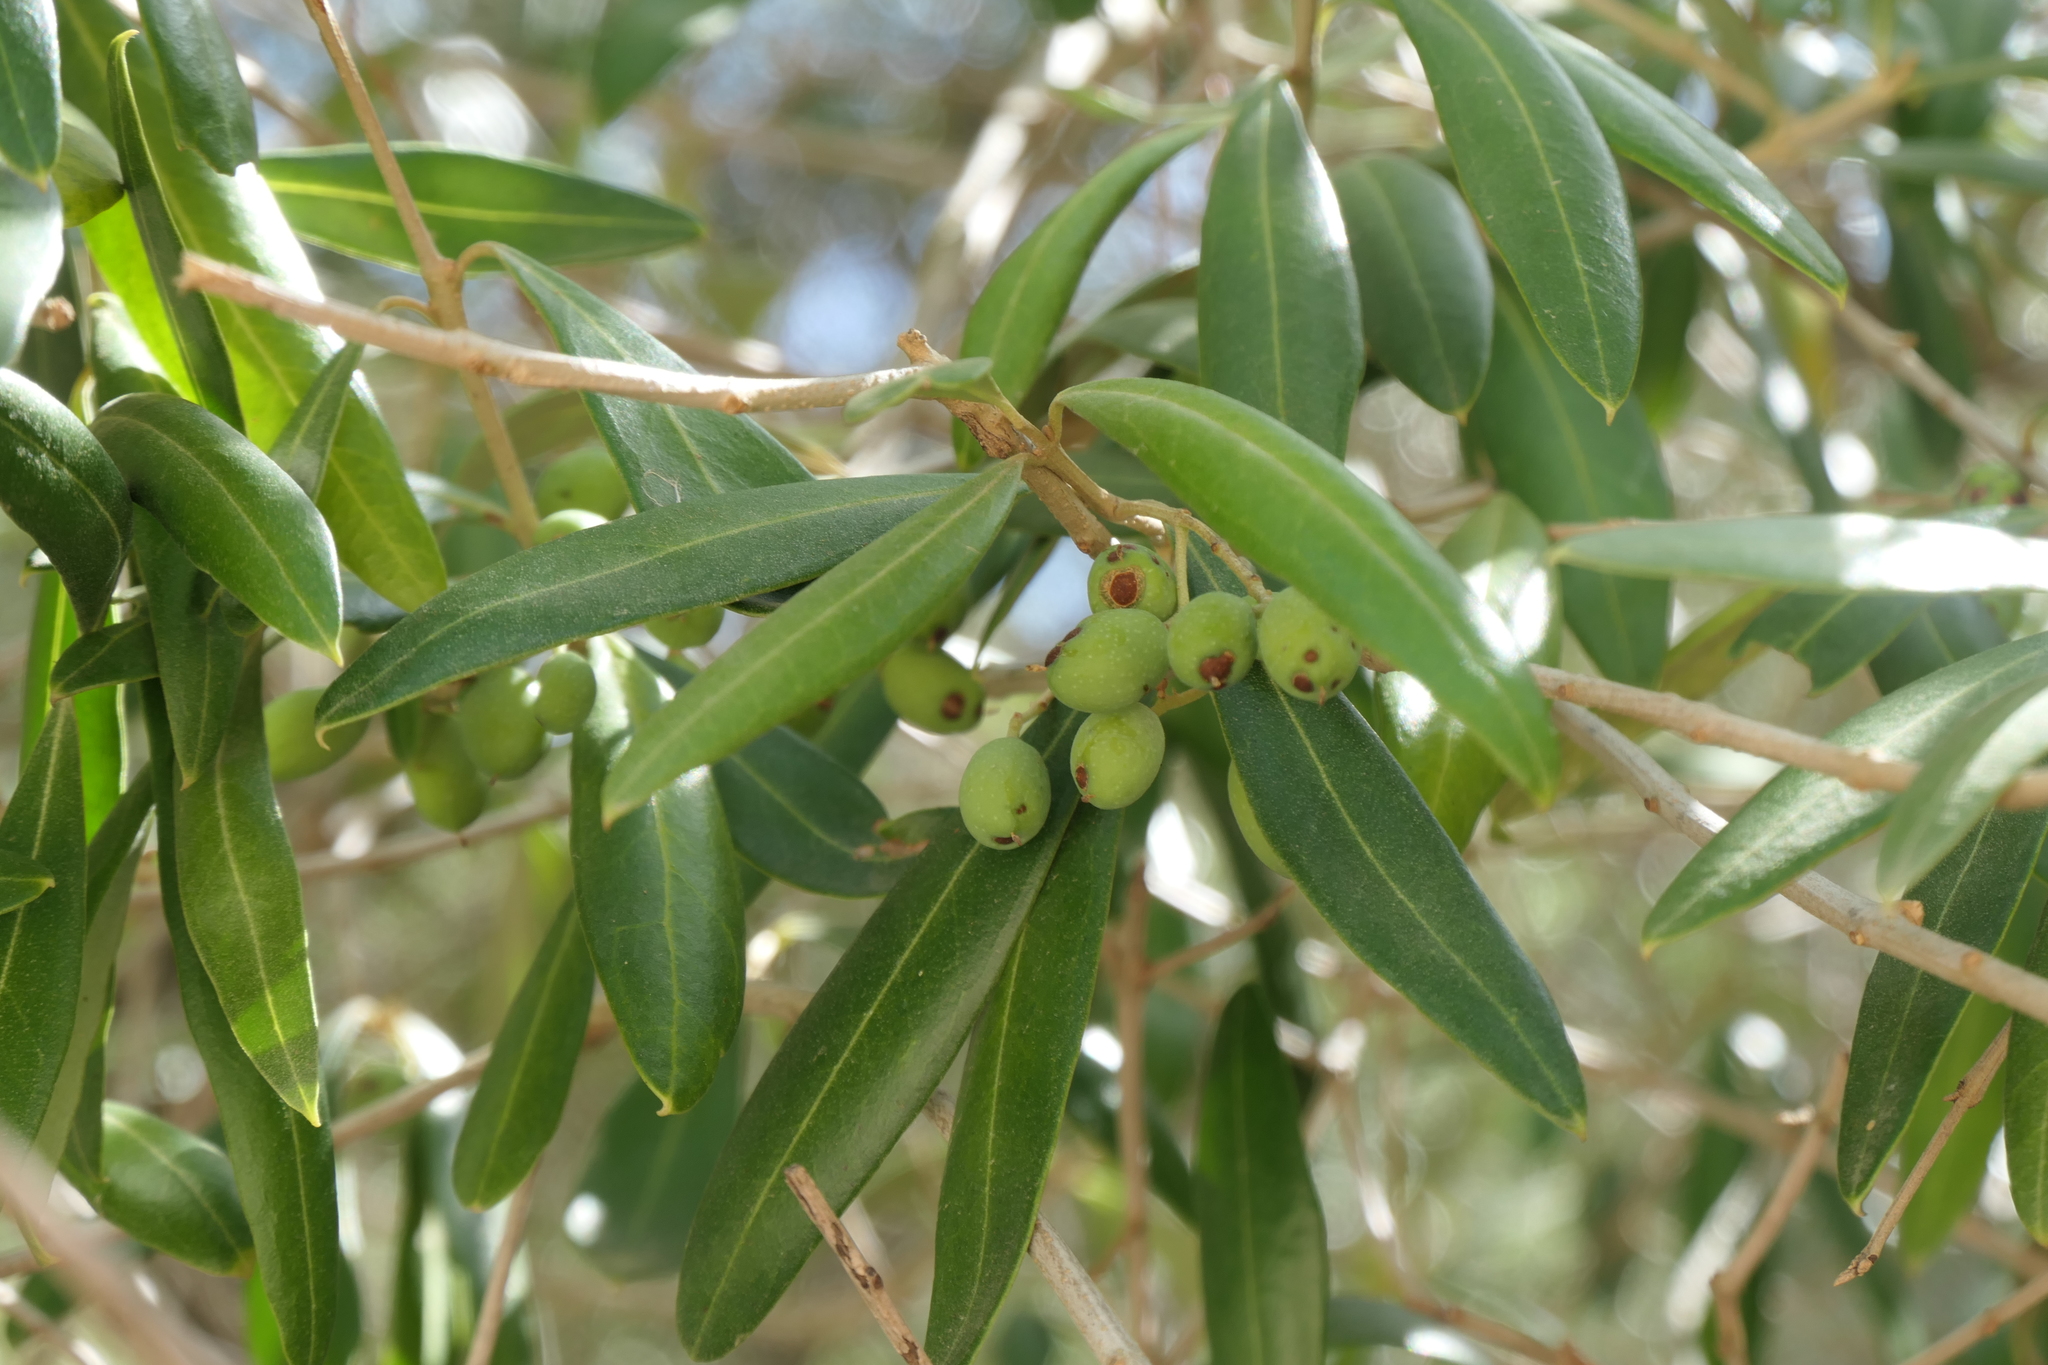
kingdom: Plantae
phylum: Tracheophyta
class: Magnoliopsida
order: Lamiales
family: Oleaceae
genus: Olea
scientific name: Olea europaea
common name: Olive
